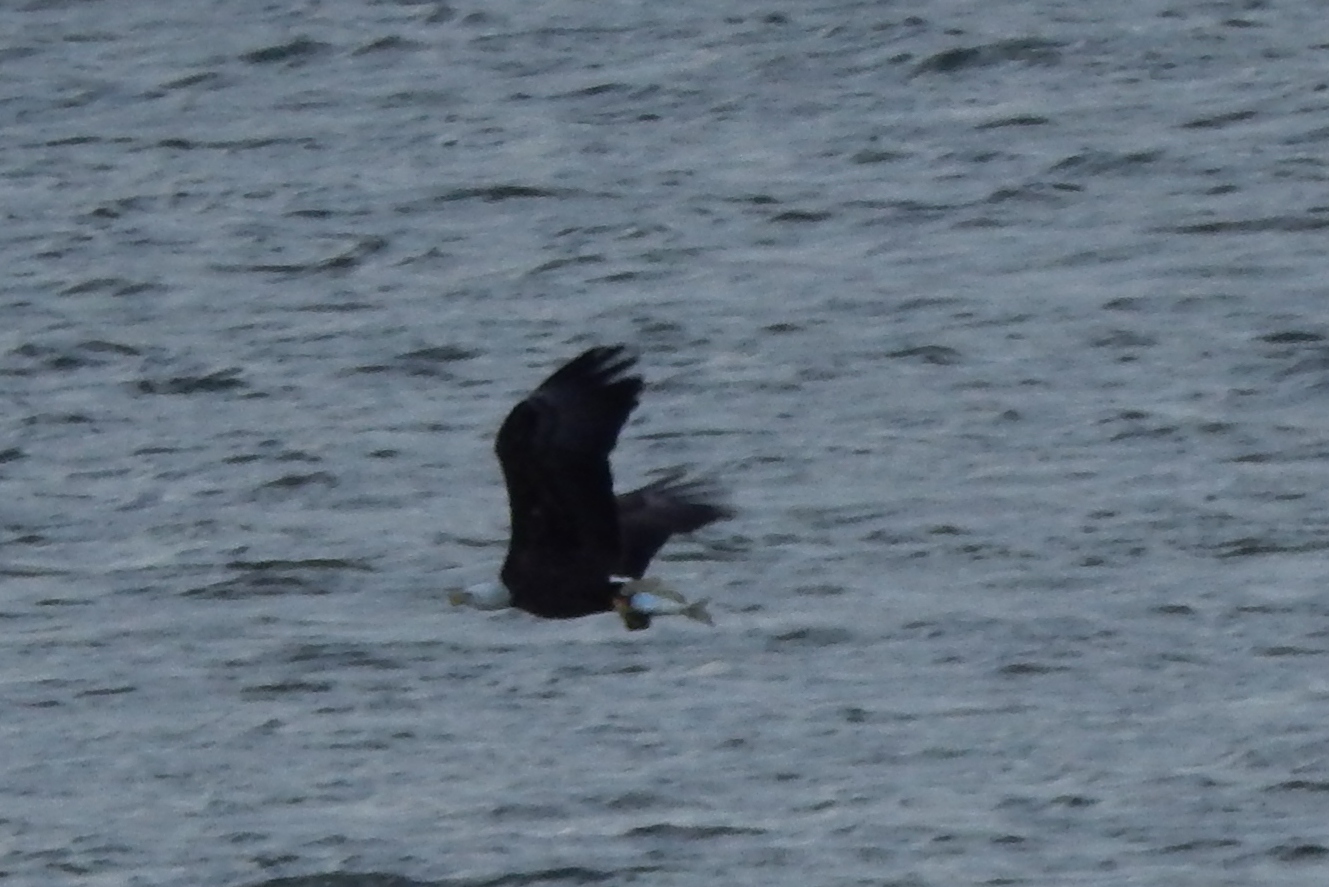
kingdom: Animalia
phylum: Chordata
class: Aves
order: Accipitriformes
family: Accipitridae
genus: Haliaeetus
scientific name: Haliaeetus leucocephalus
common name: Bald eagle
